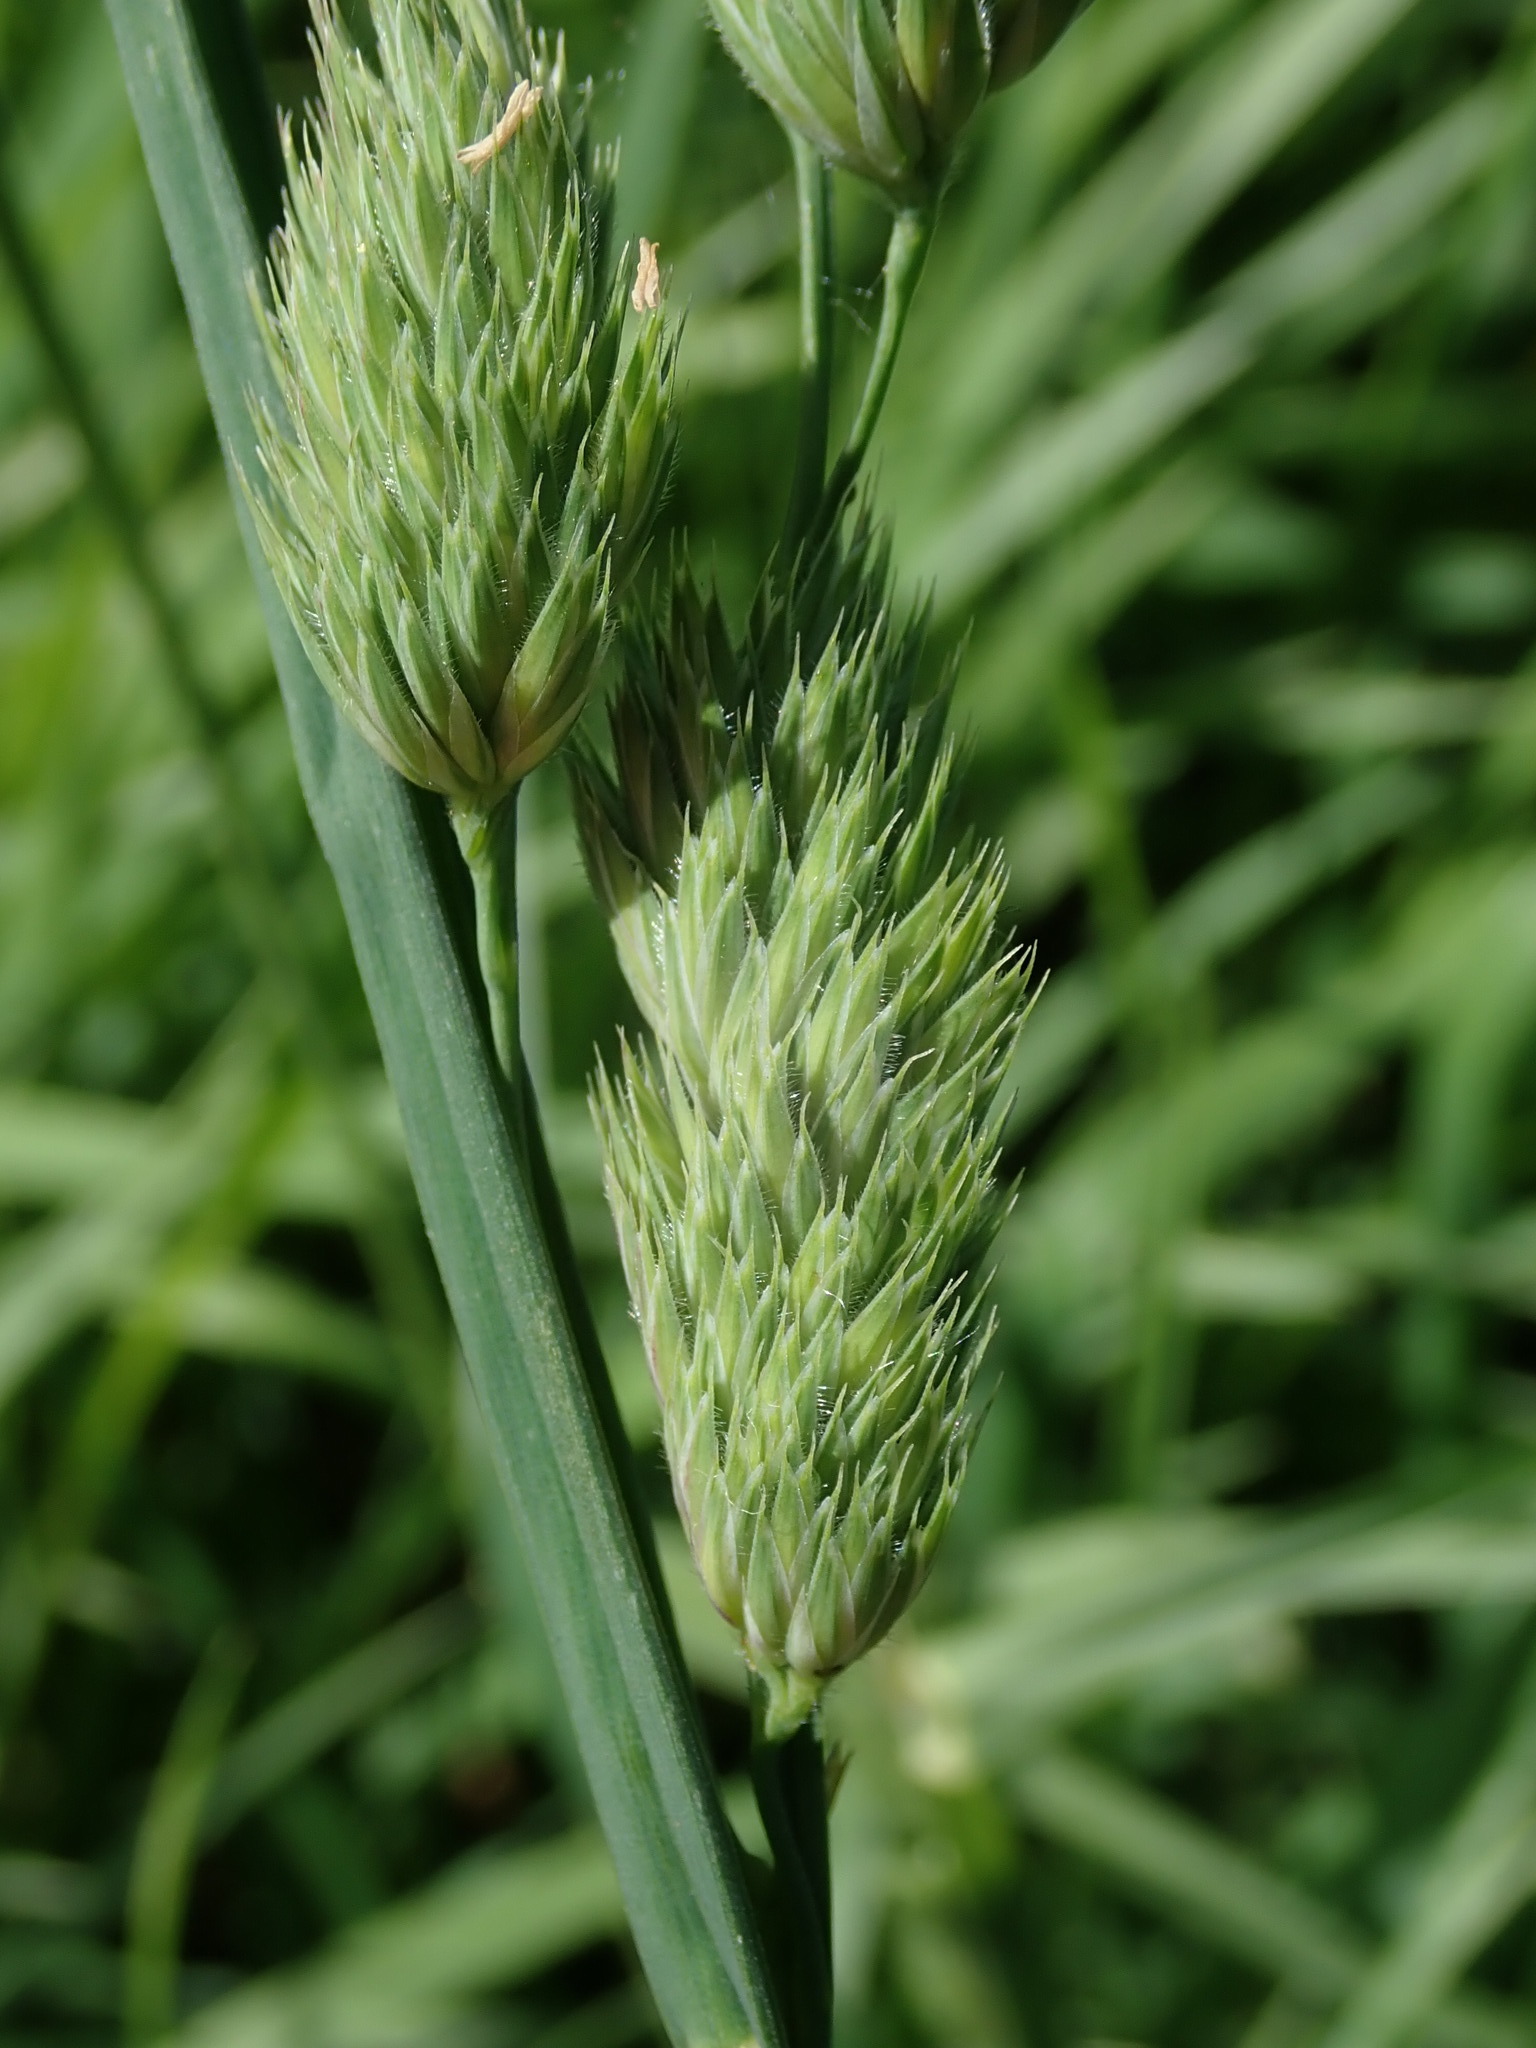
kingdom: Plantae
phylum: Tracheophyta
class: Liliopsida
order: Poales
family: Poaceae
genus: Dactylis
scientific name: Dactylis glomerata
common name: Orchardgrass
